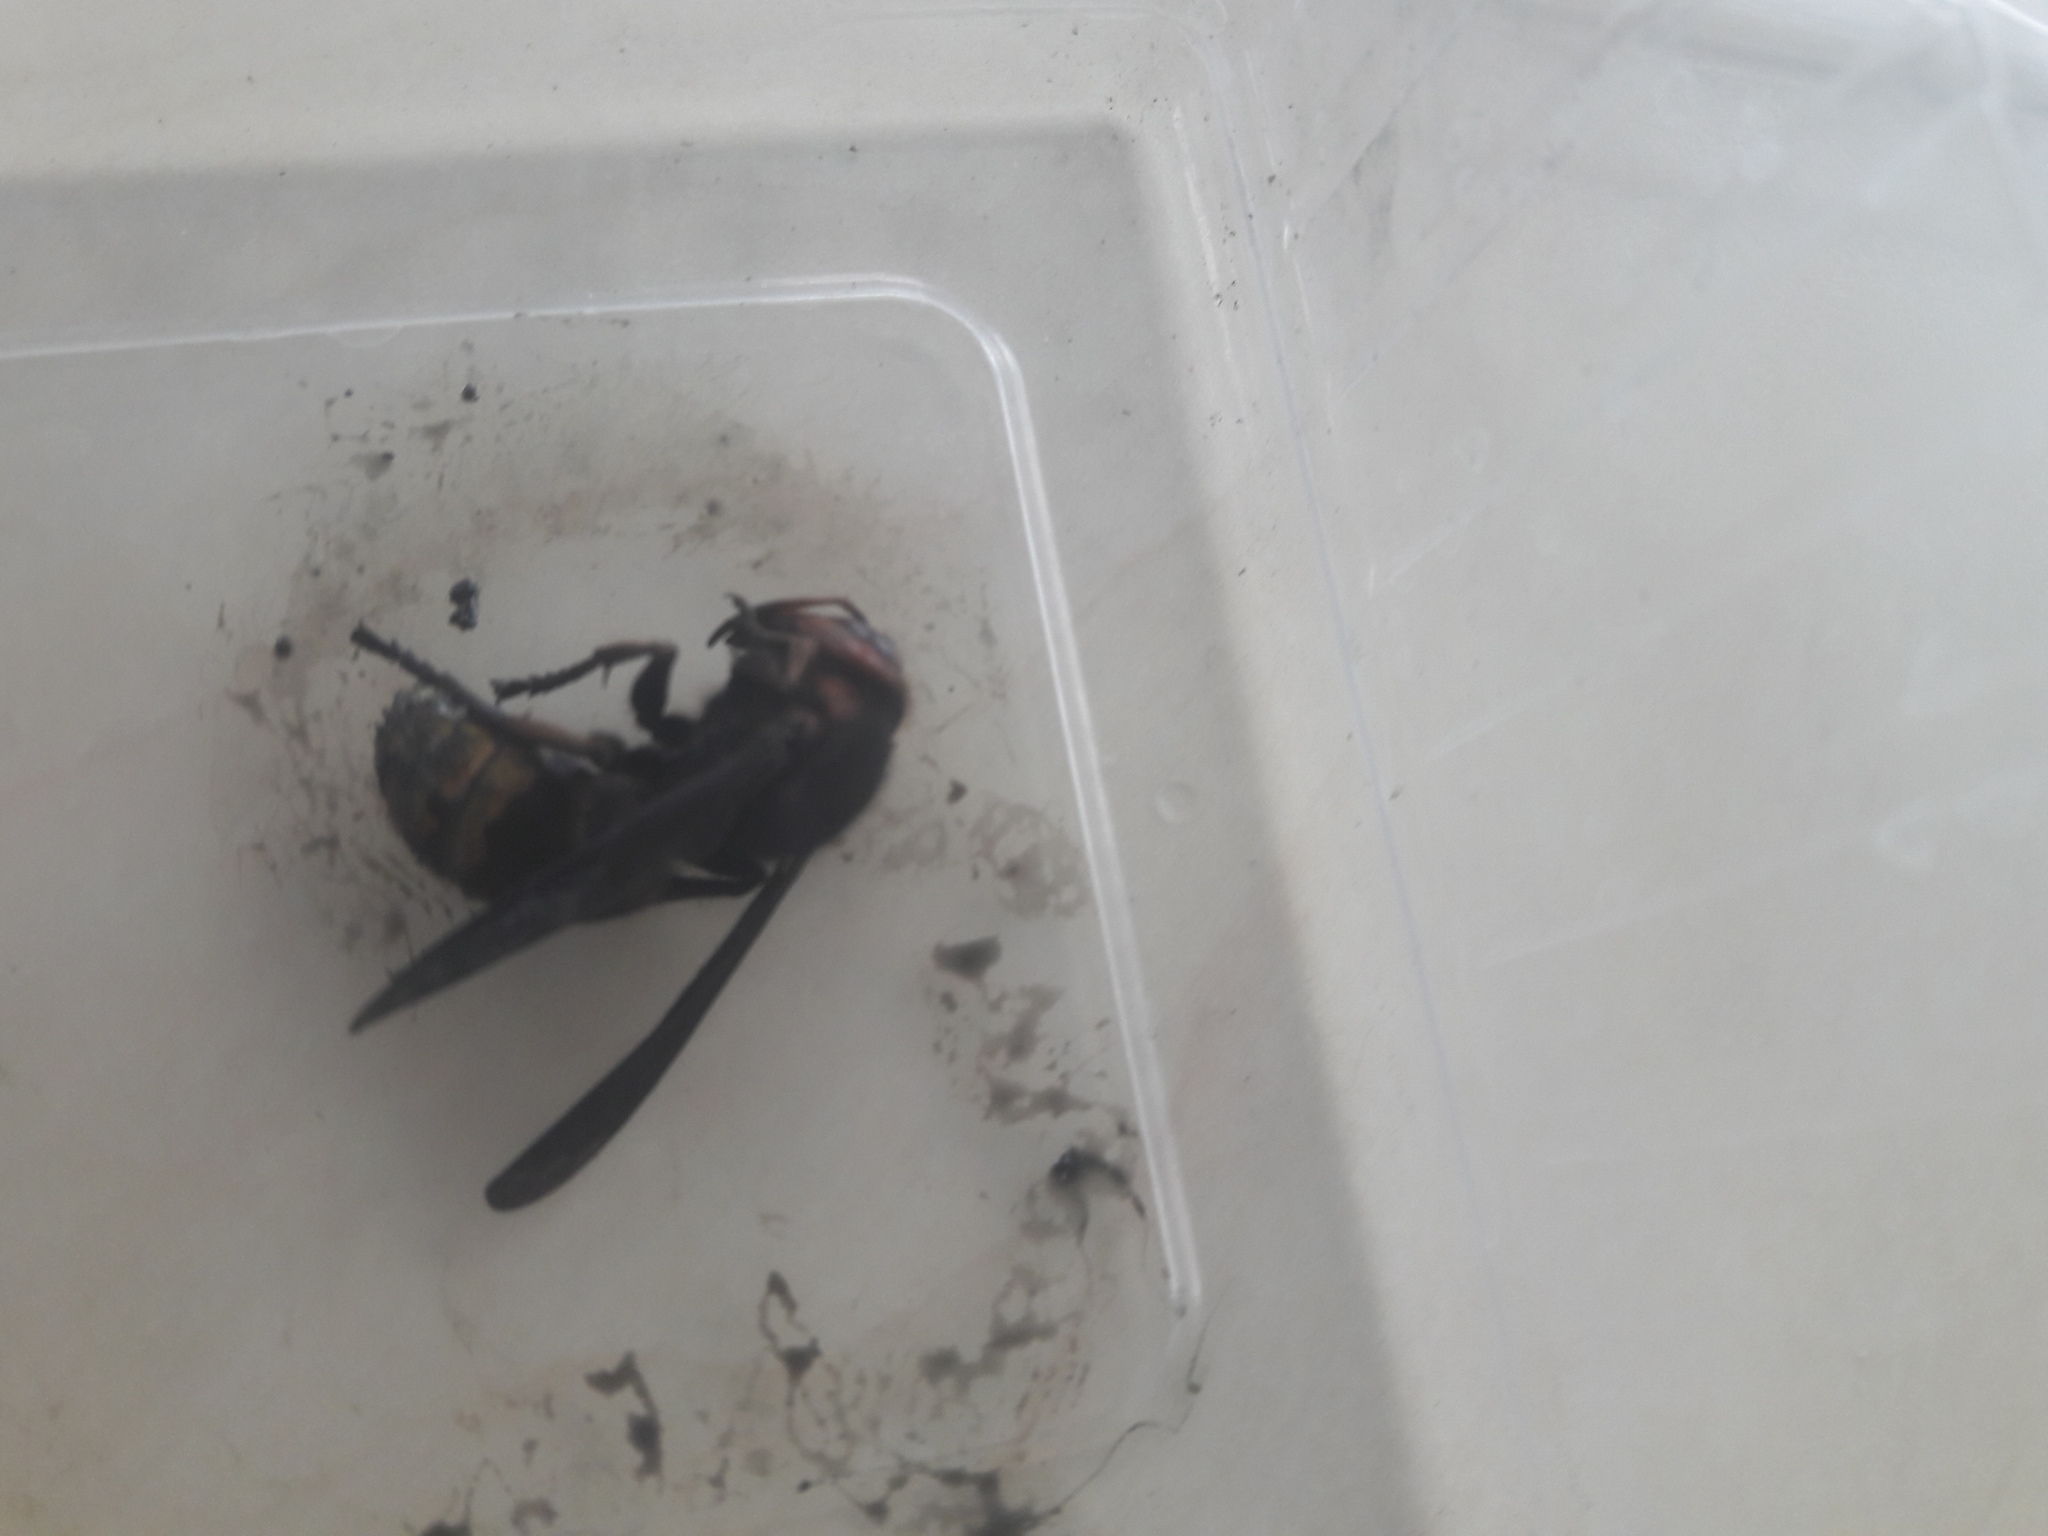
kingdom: Animalia
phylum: Arthropoda
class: Insecta
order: Hymenoptera
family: Vespidae
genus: Vespa
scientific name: Vespa crabro
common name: Hornet
